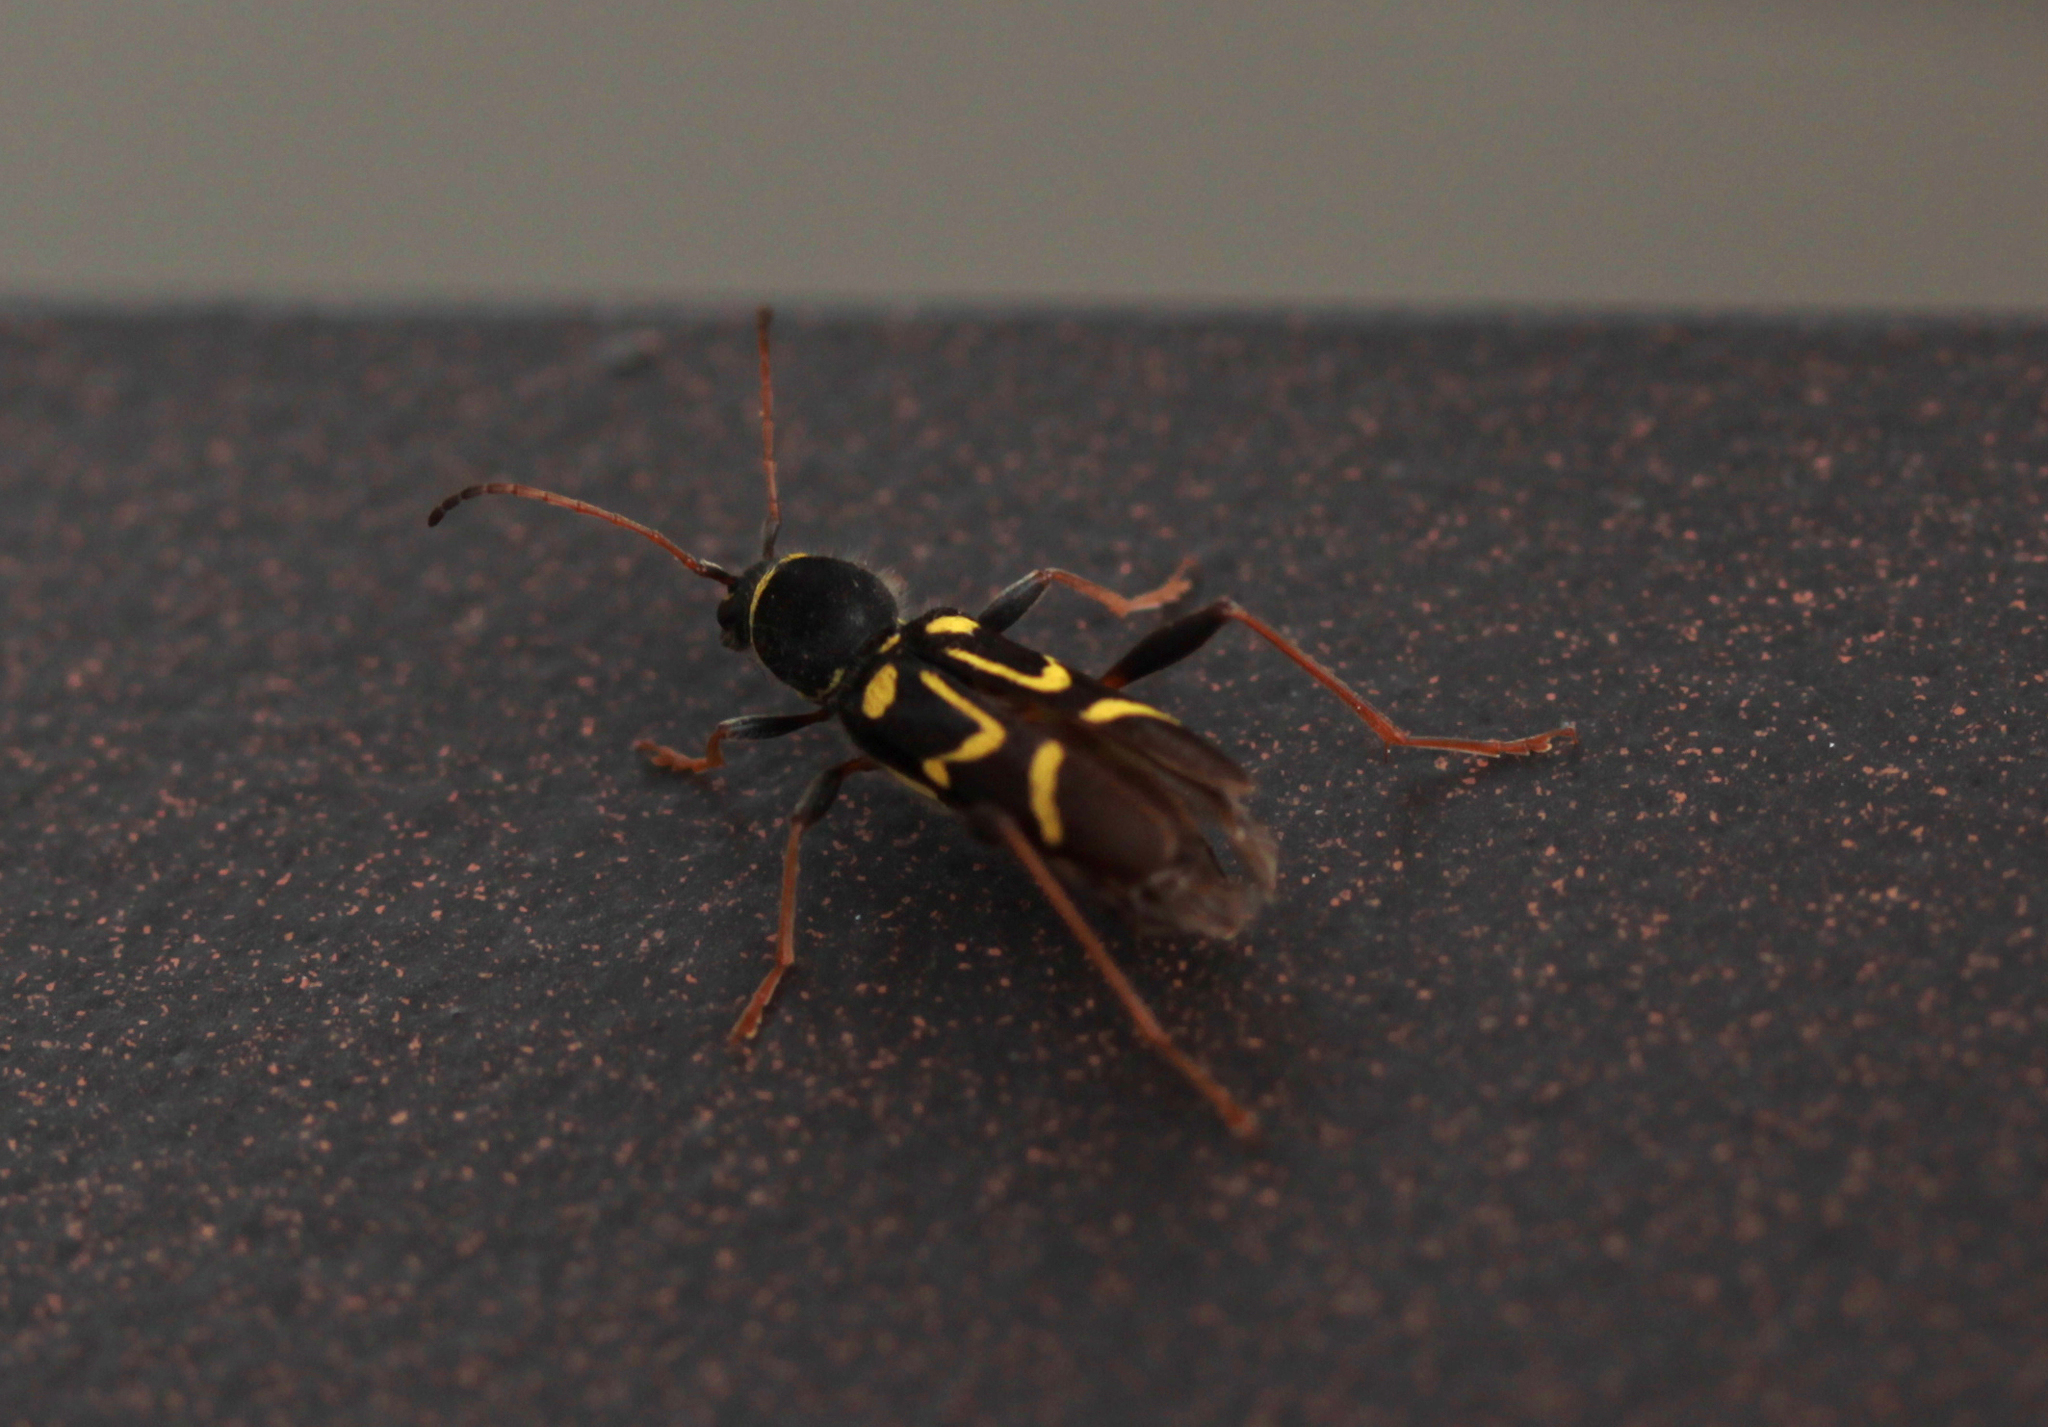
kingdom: Animalia
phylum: Arthropoda
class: Insecta
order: Coleoptera
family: Cerambycidae
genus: Clytus
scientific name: Clytus ruricola
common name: Round-necked longhorn beetle
